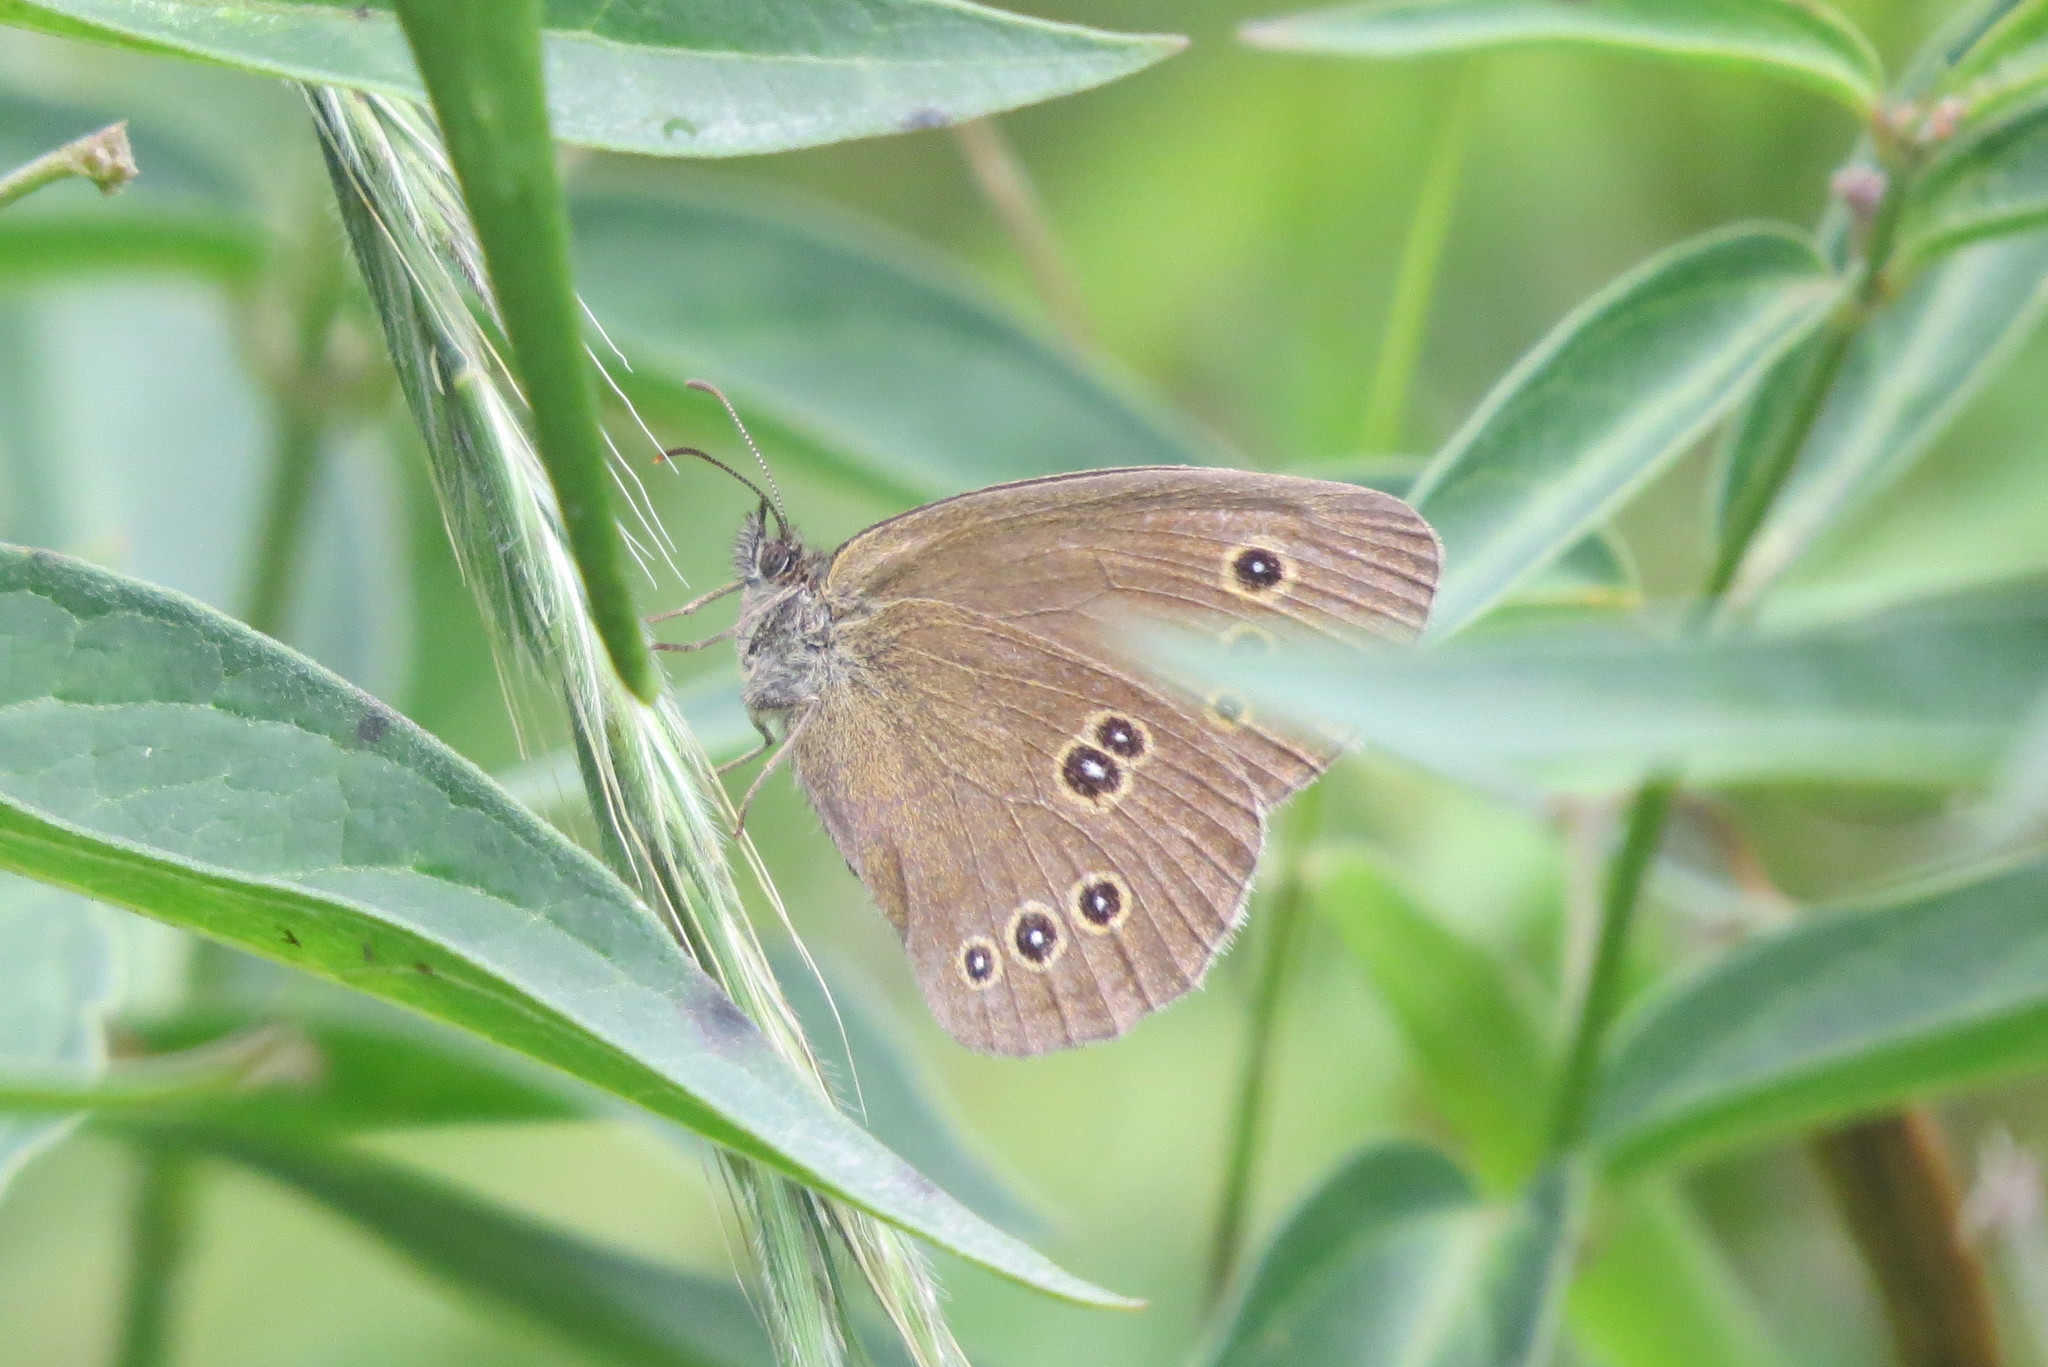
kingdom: Animalia
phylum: Arthropoda
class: Insecta
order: Lepidoptera
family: Nymphalidae
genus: Aphantopus
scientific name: Aphantopus hyperantus
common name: Ringlet
